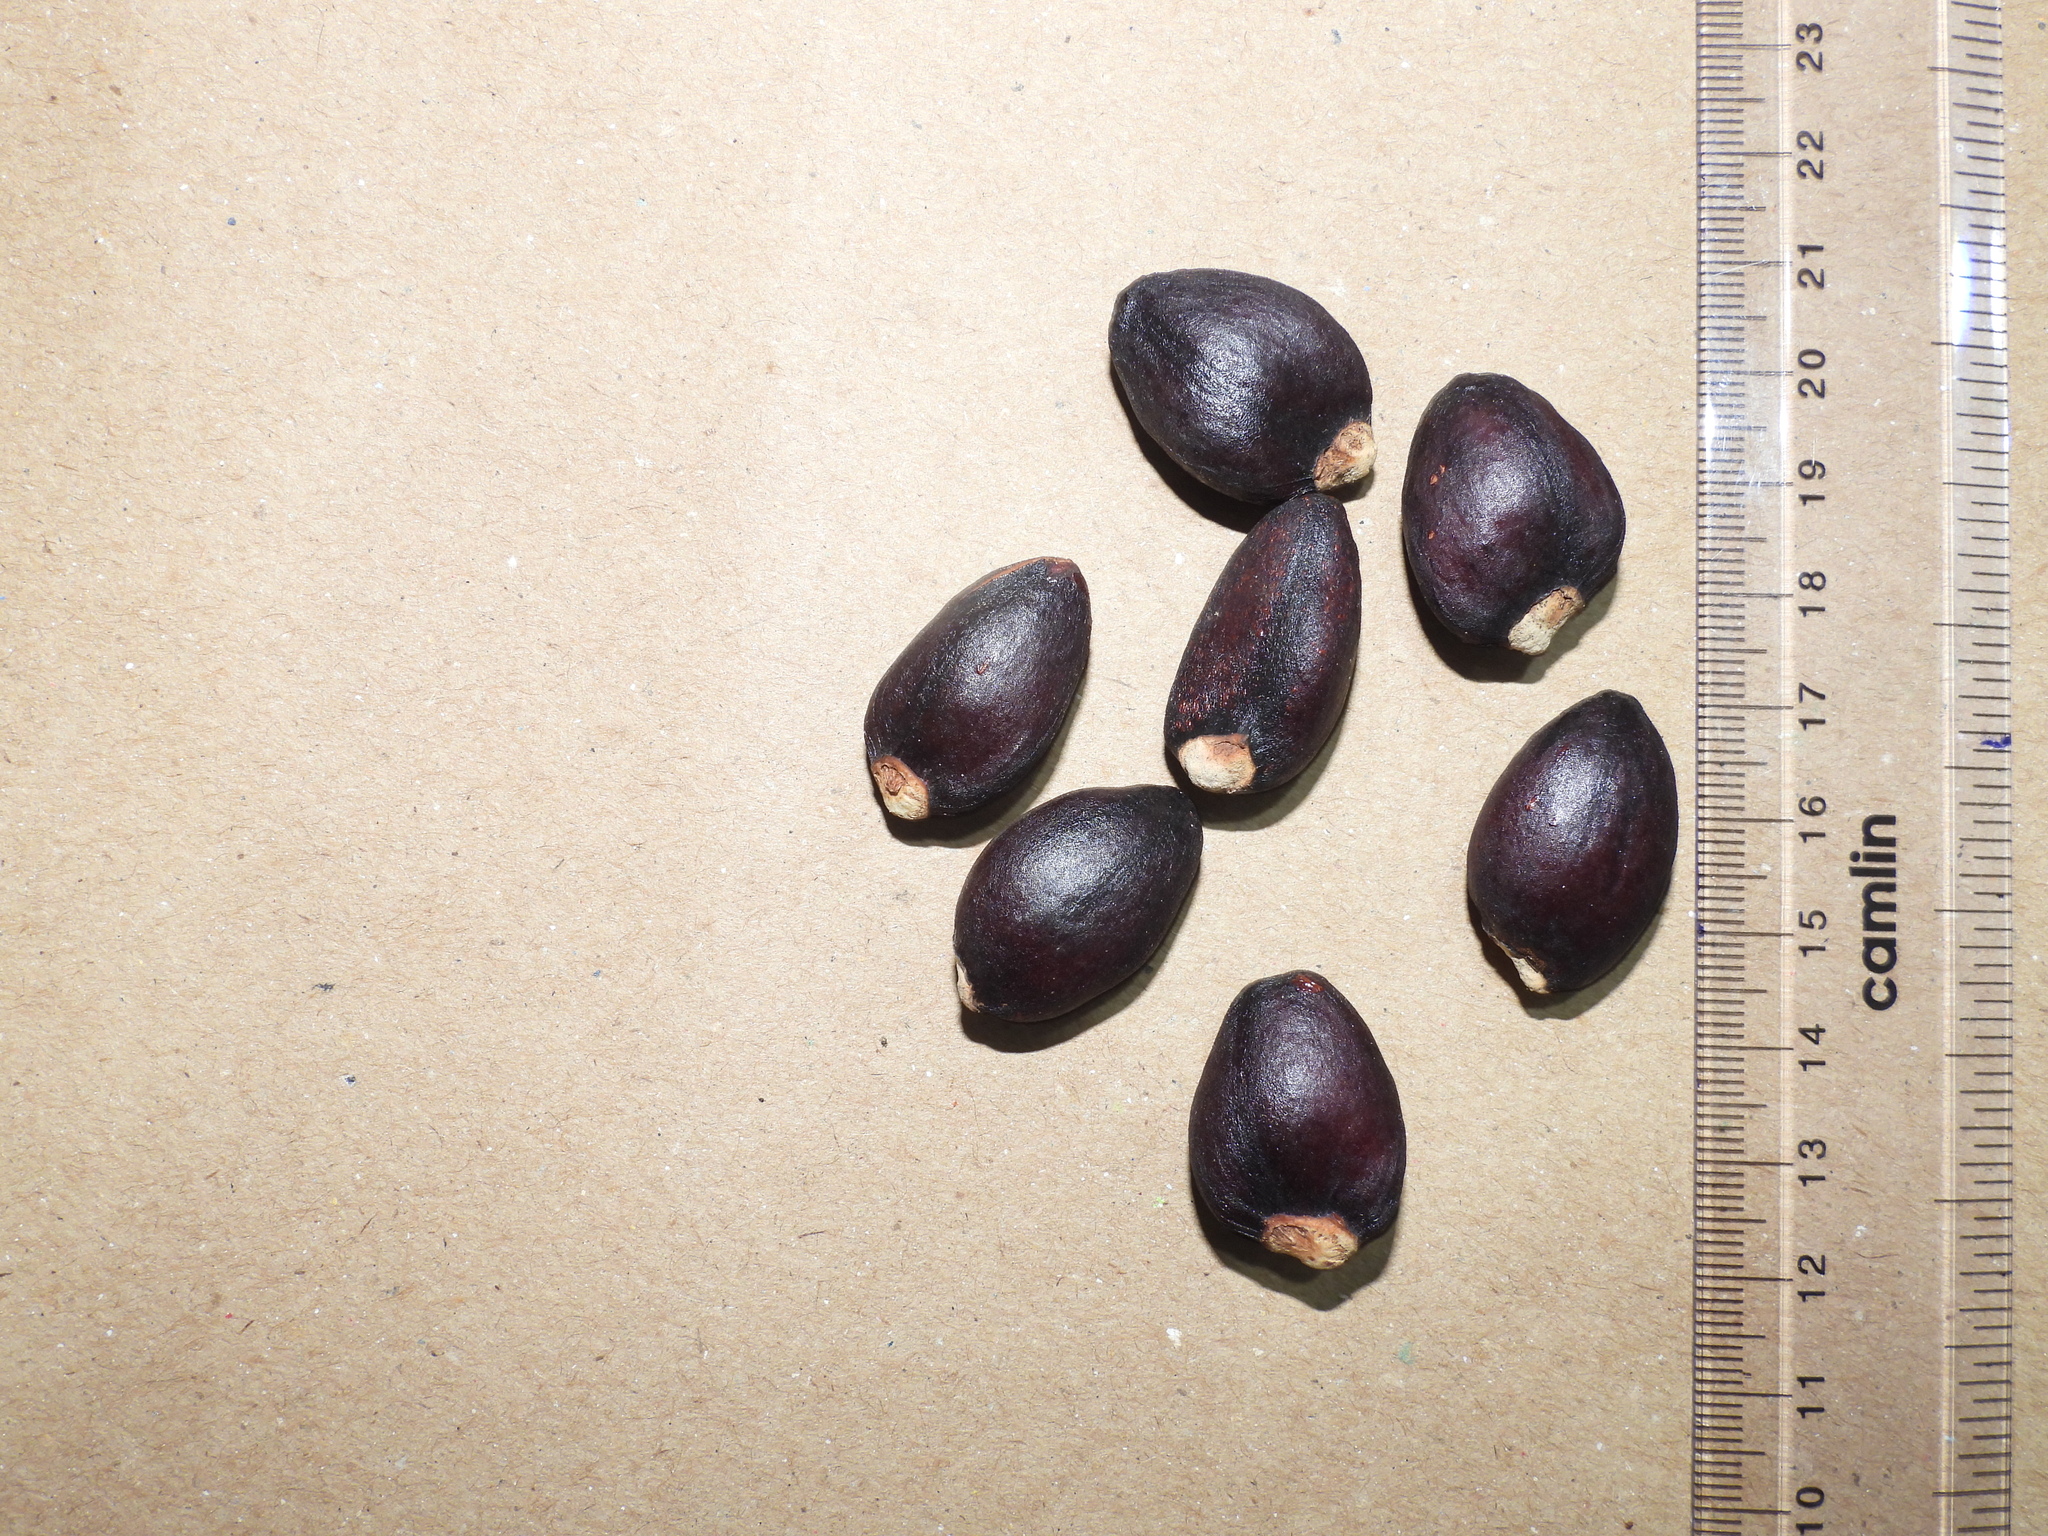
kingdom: Plantae
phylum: Tracheophyta
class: Magnoliopsida
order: Malpighiales
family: Centroplacaceae
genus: Bhesa
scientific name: Bhesa indica
